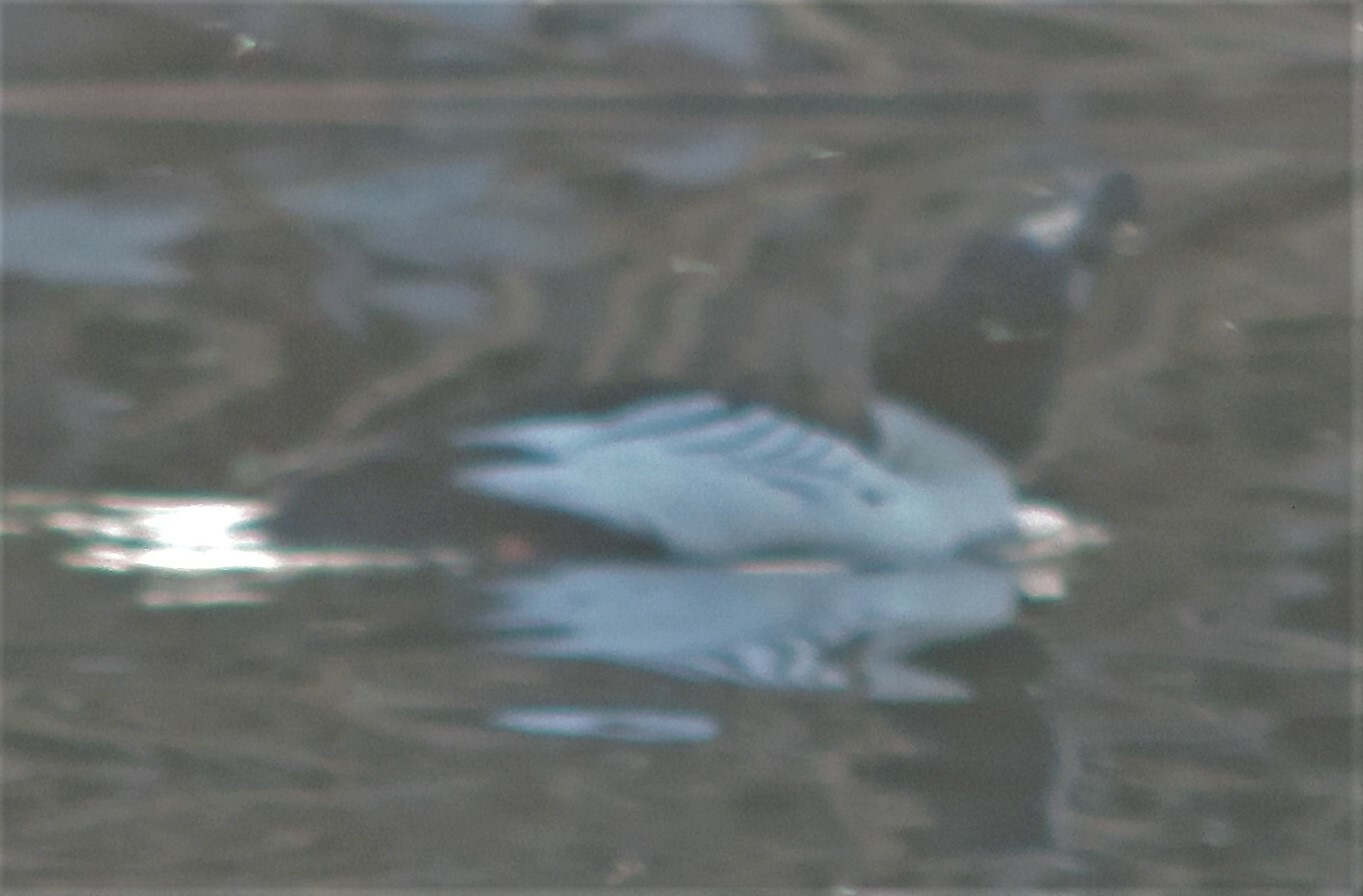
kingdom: Animalia
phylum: Chordata
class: Aves
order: Anseriformes
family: Anatidae
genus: Bucephala
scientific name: Bucephala clangula
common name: Common goldeneye
